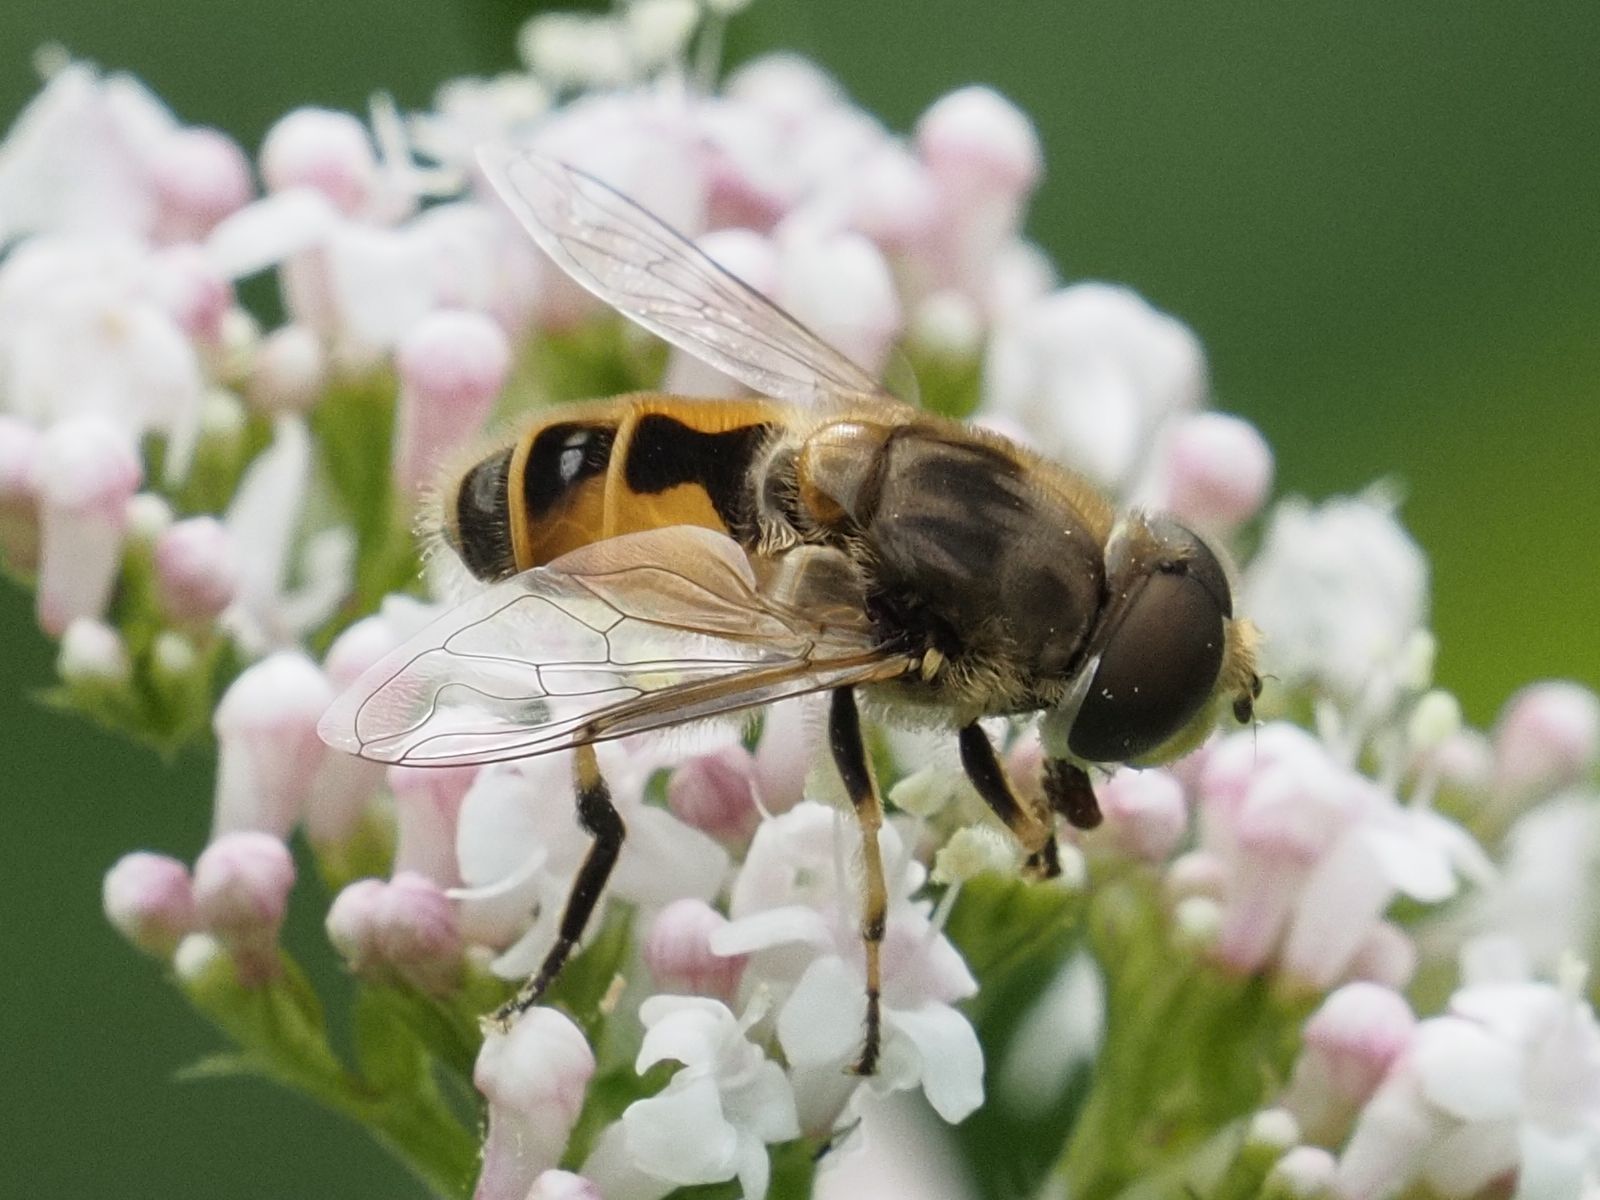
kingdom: Animalia
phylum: Arthropoda
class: Insecta
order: Diptera
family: Syrphidae
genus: Eristalis
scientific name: Eristalis arbustorum
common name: Hover fly
